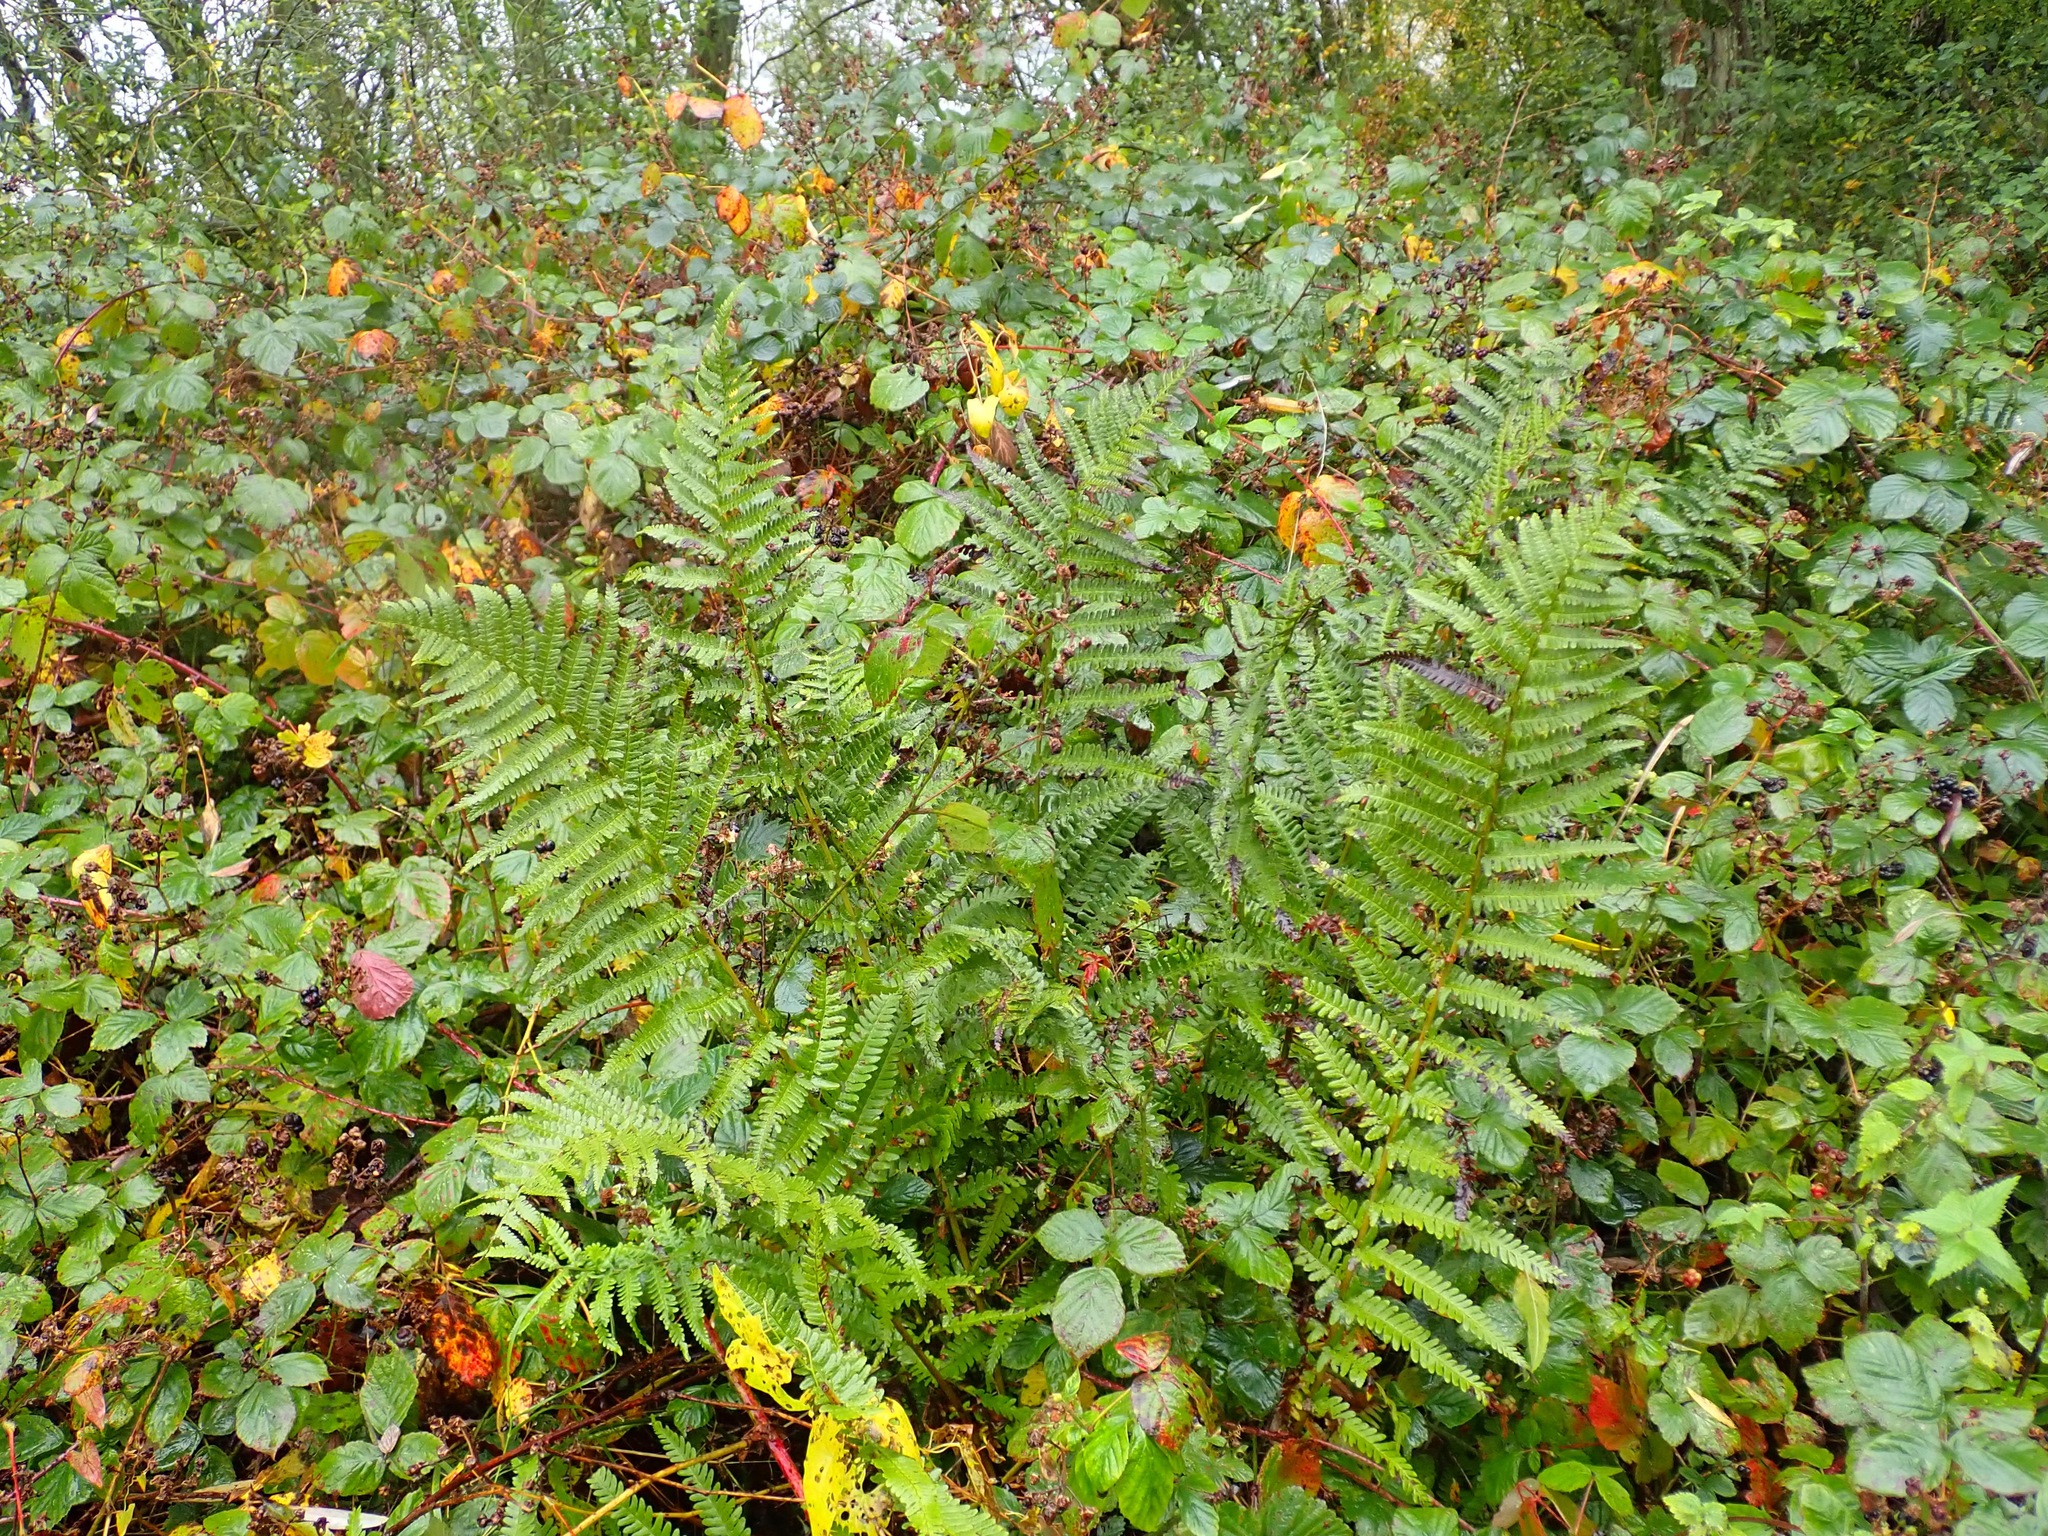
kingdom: Plantae
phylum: Tracheophyta
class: Polypodiopsida
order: Polypodiales
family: Dryopteridaceae
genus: Dryopteris
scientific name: Dryopteris filix-mas
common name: Male fern
